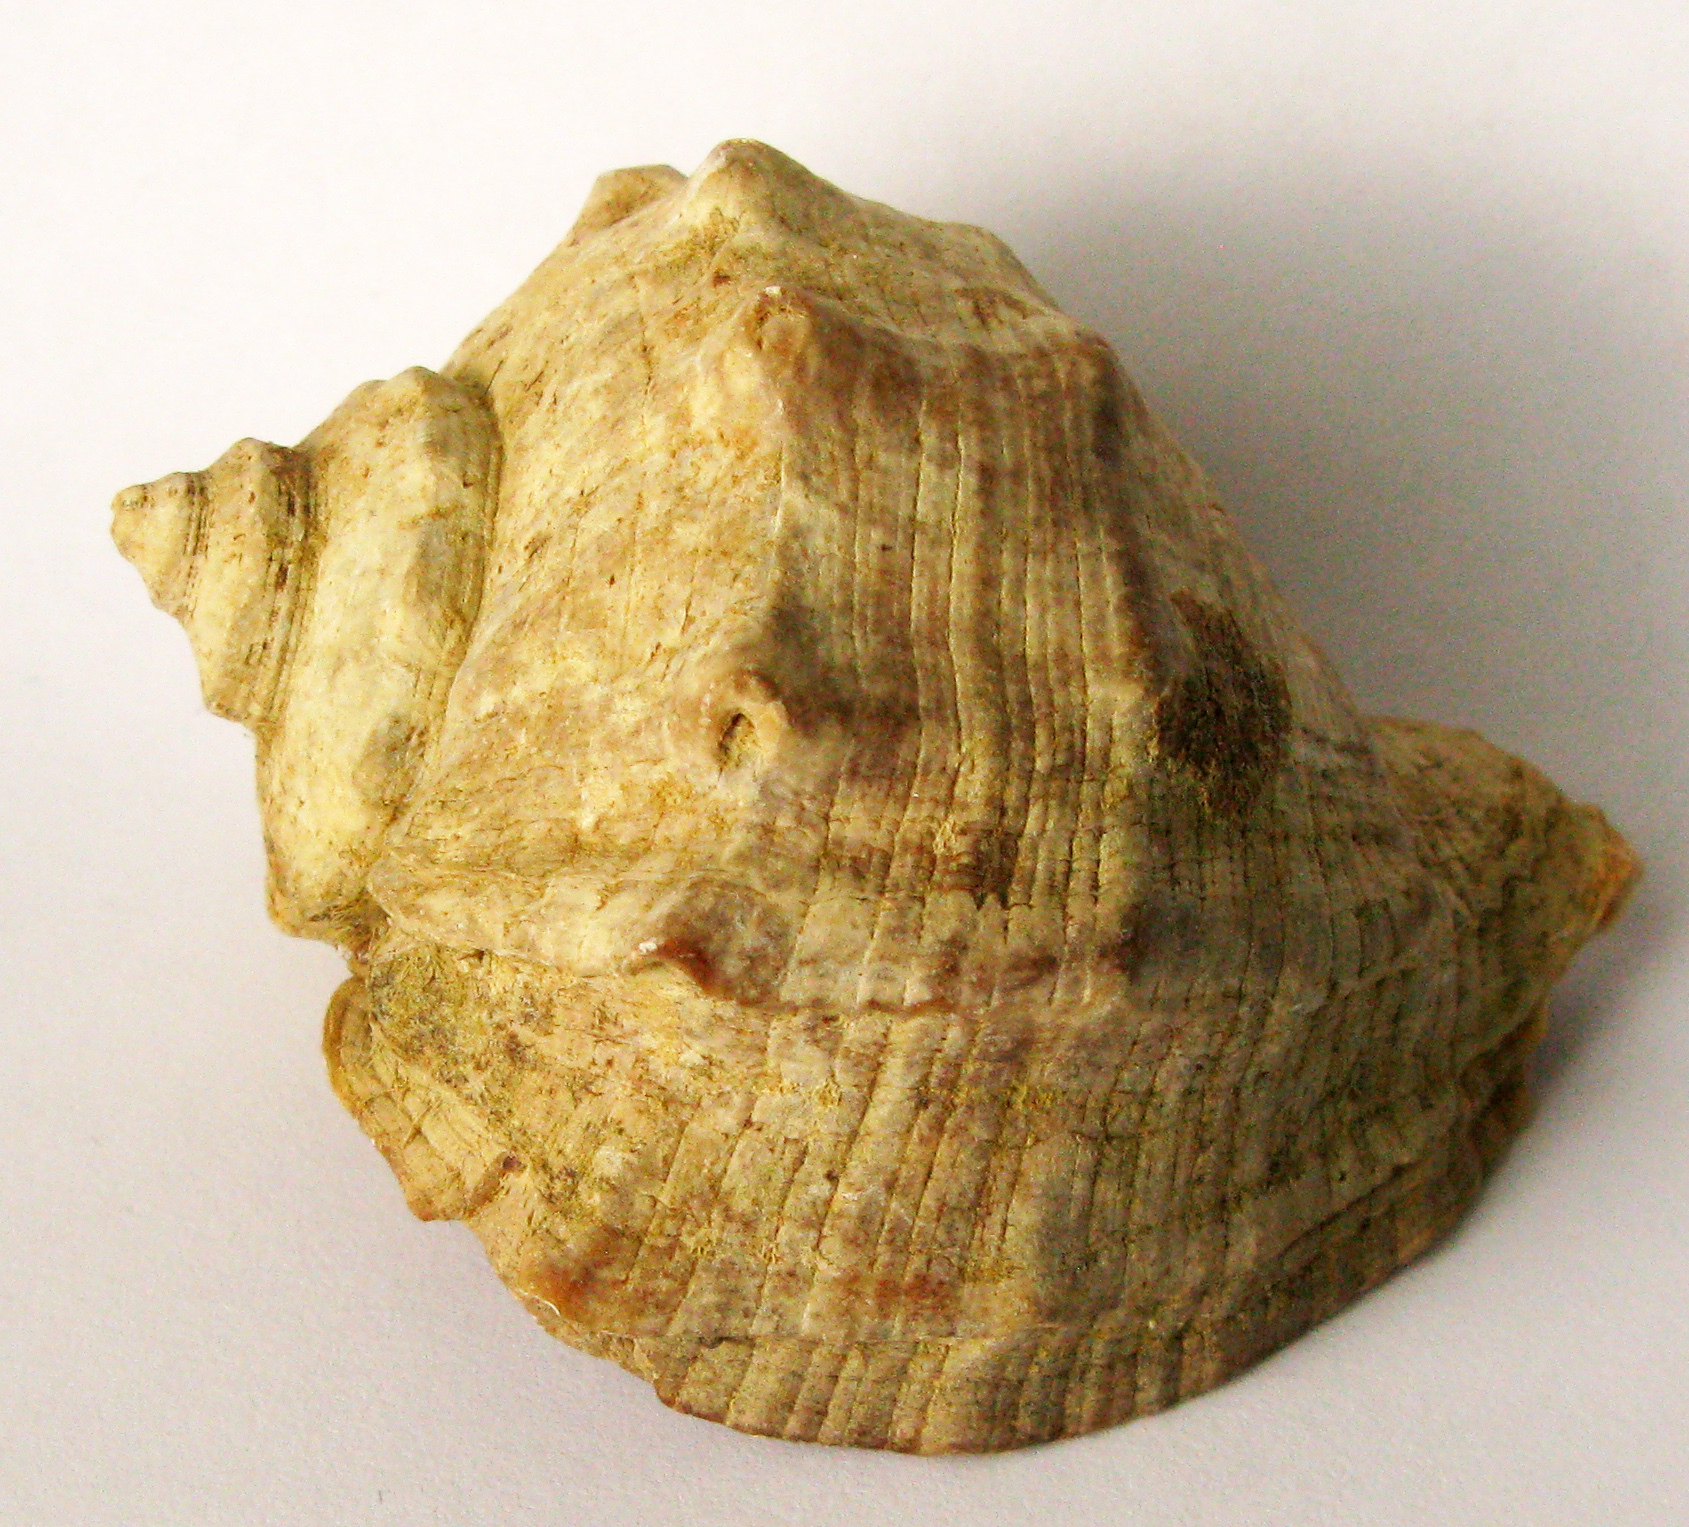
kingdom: Animalia
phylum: Mollusca
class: Gastropoda
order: Neogastropoda
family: Muricidae
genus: Rapana
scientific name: Rapana venosa
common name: Veined rapa whelk
